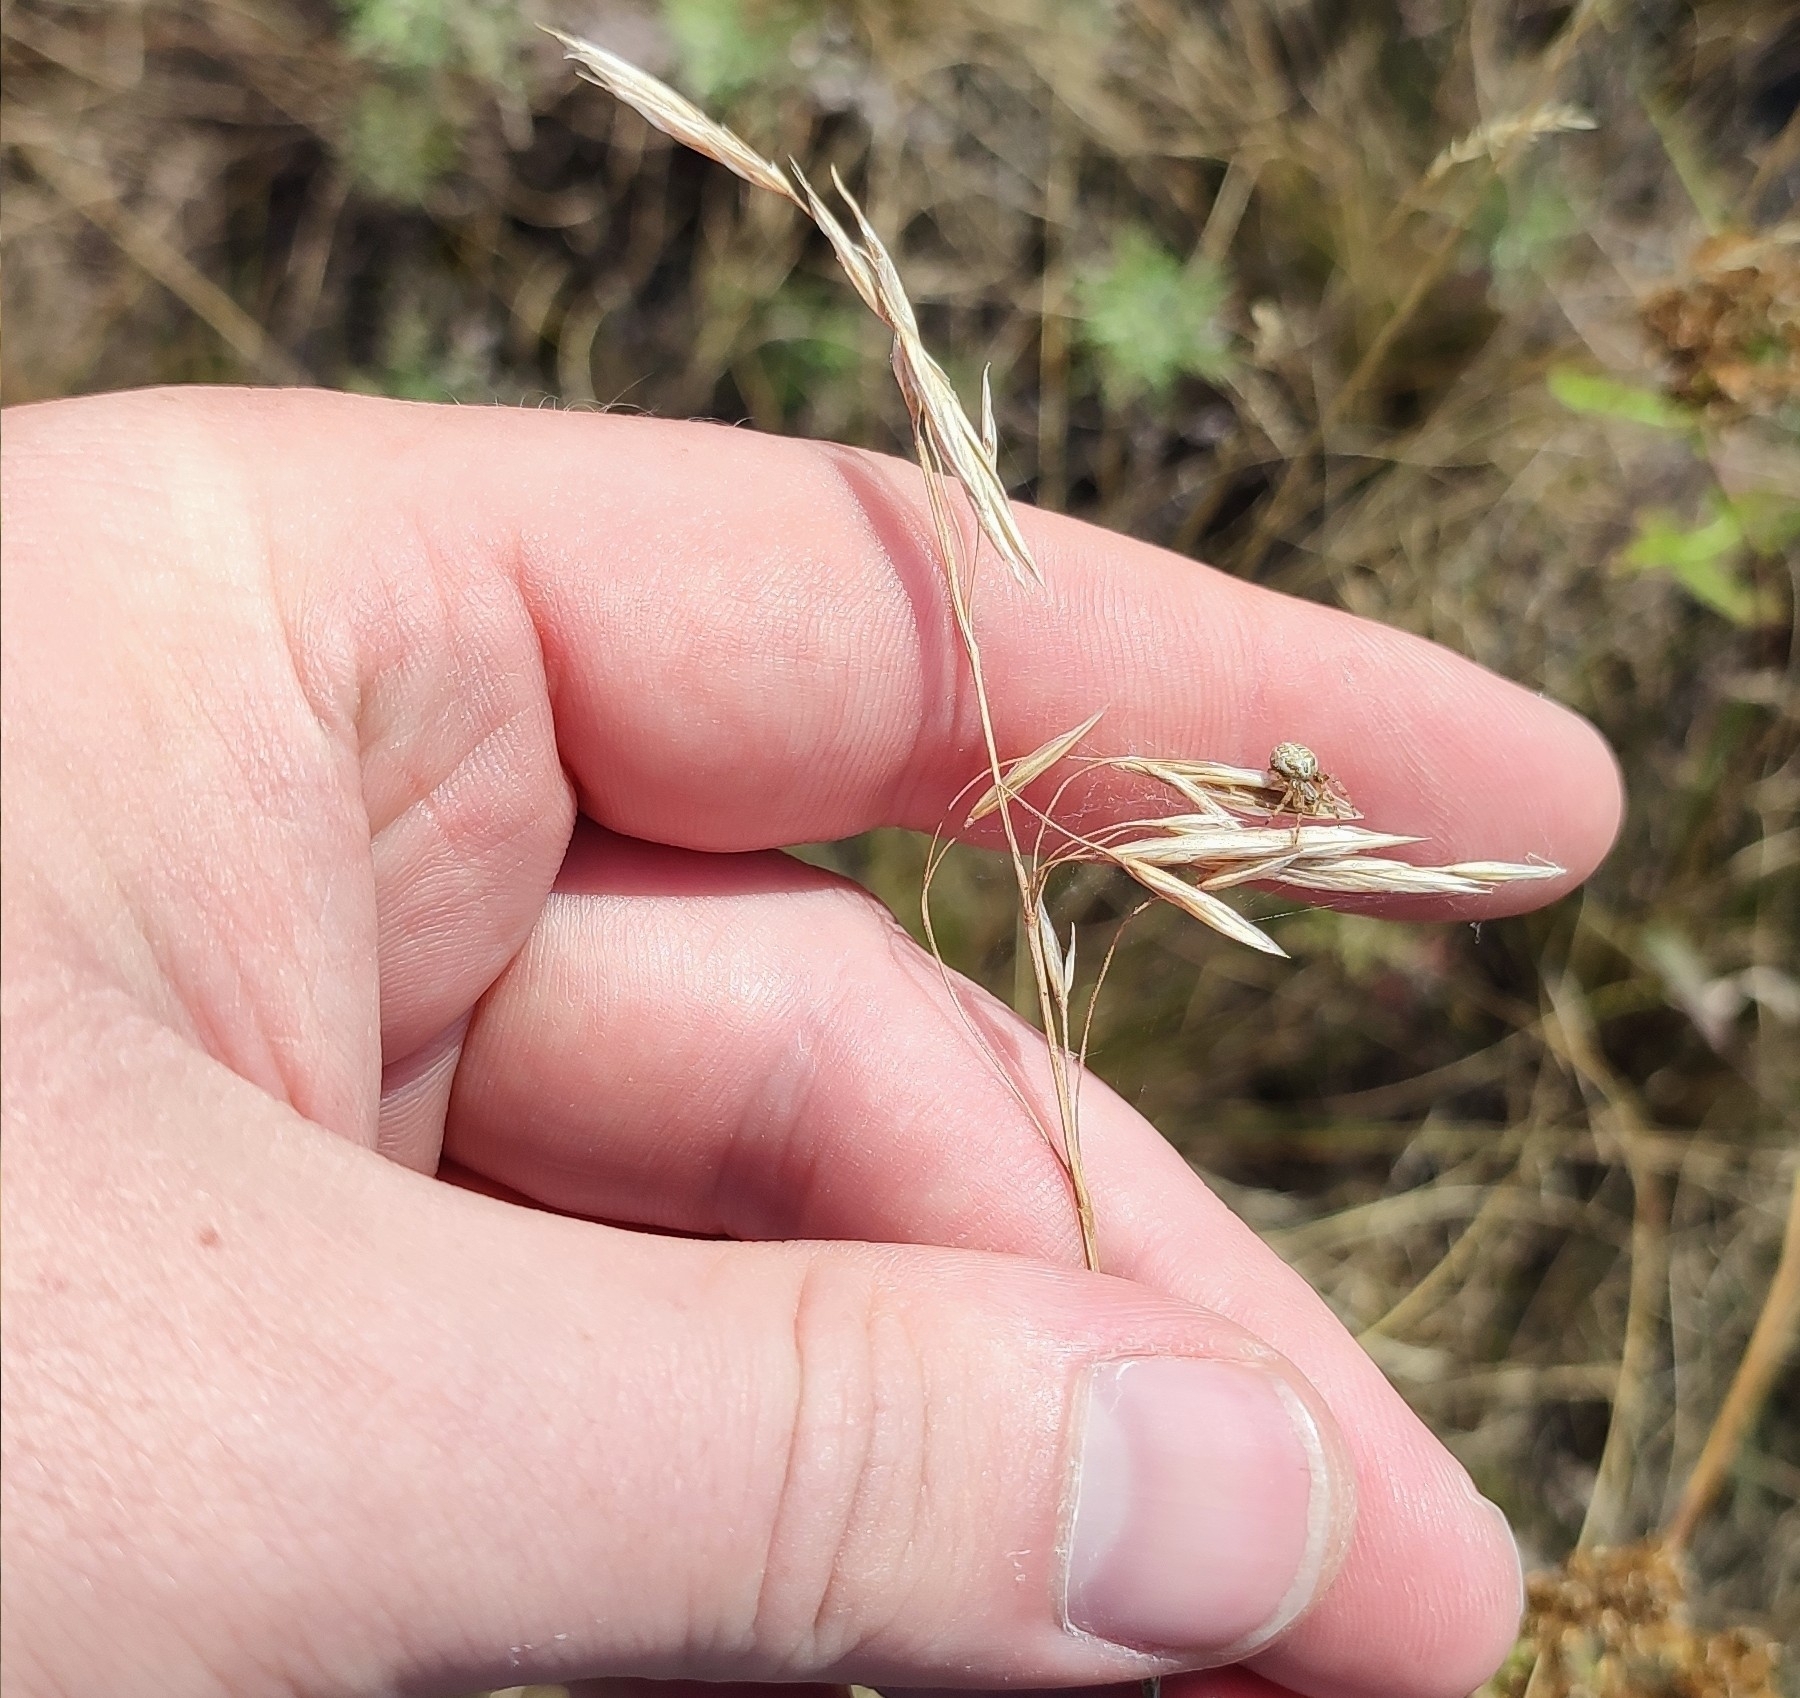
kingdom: Plantae
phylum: Tracheophyta
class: Liliopsida
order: Poales
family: Poaceae
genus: Bromus
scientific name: Bromus inermis
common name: Smooth brome
